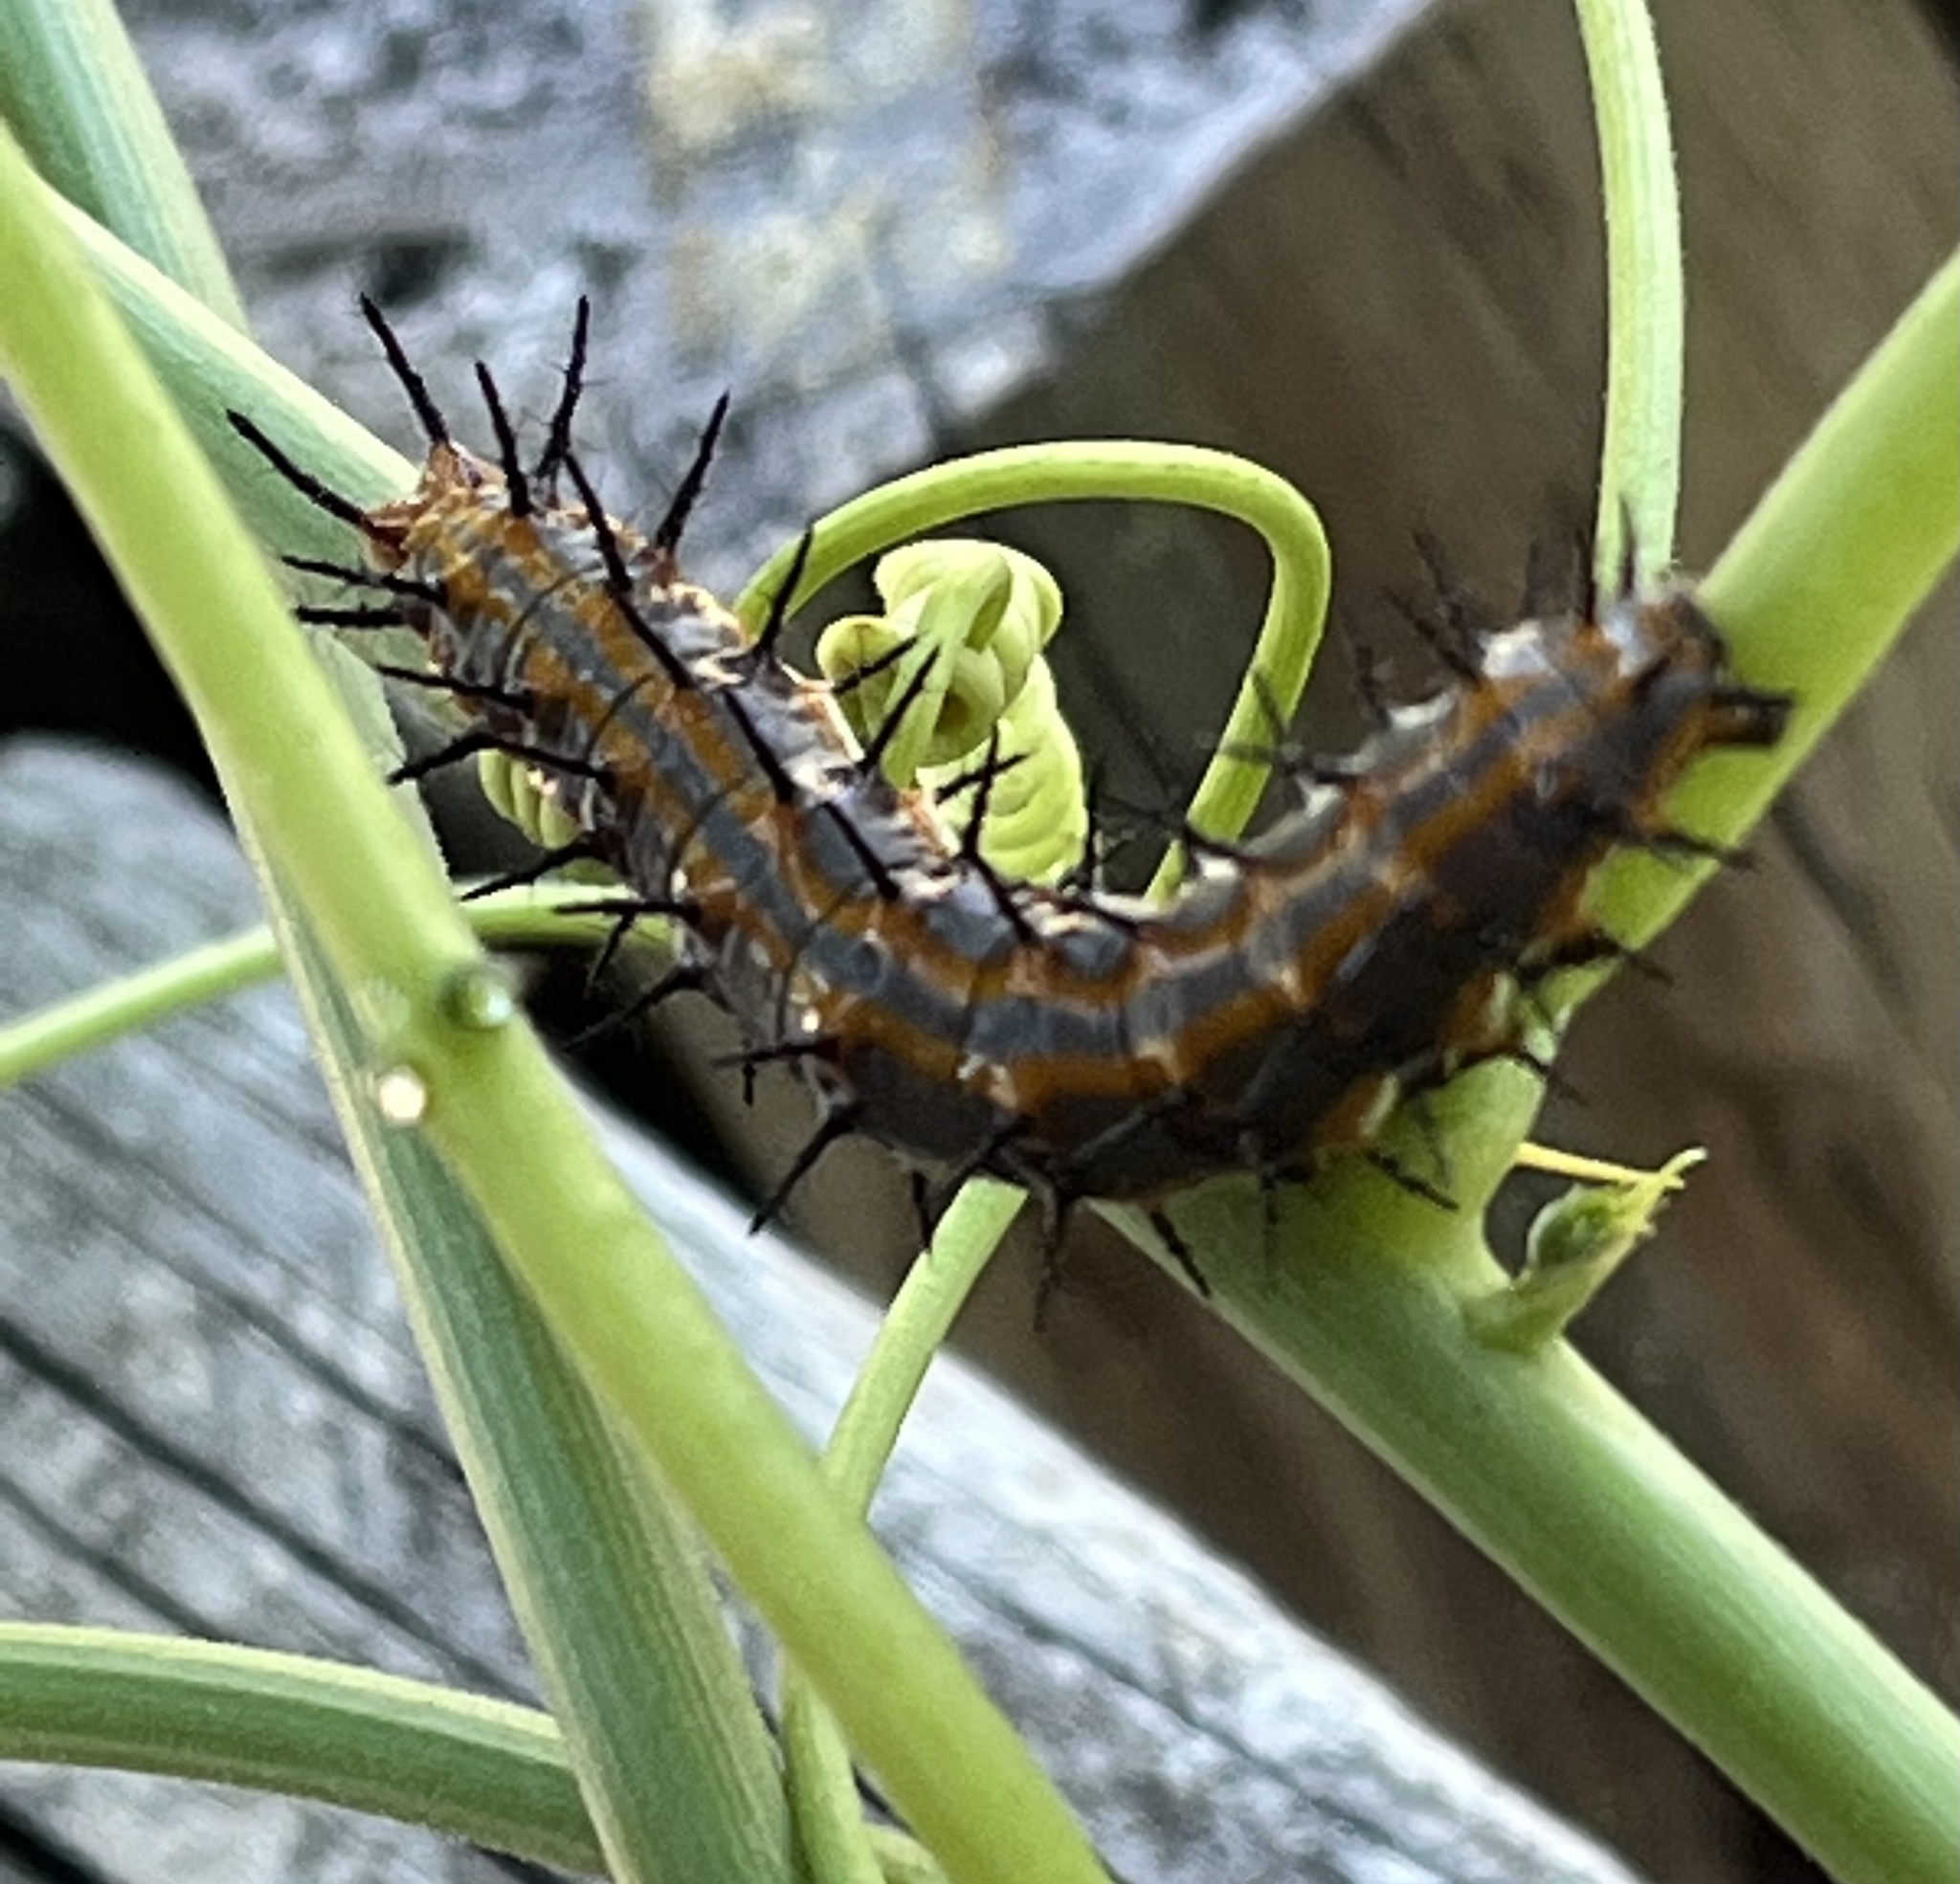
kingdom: Animalia
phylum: Arthropoda
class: Insecta
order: Lepidoptera
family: Nymphalidae
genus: Dione
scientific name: Dione vanillae
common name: Gulf fritillary
